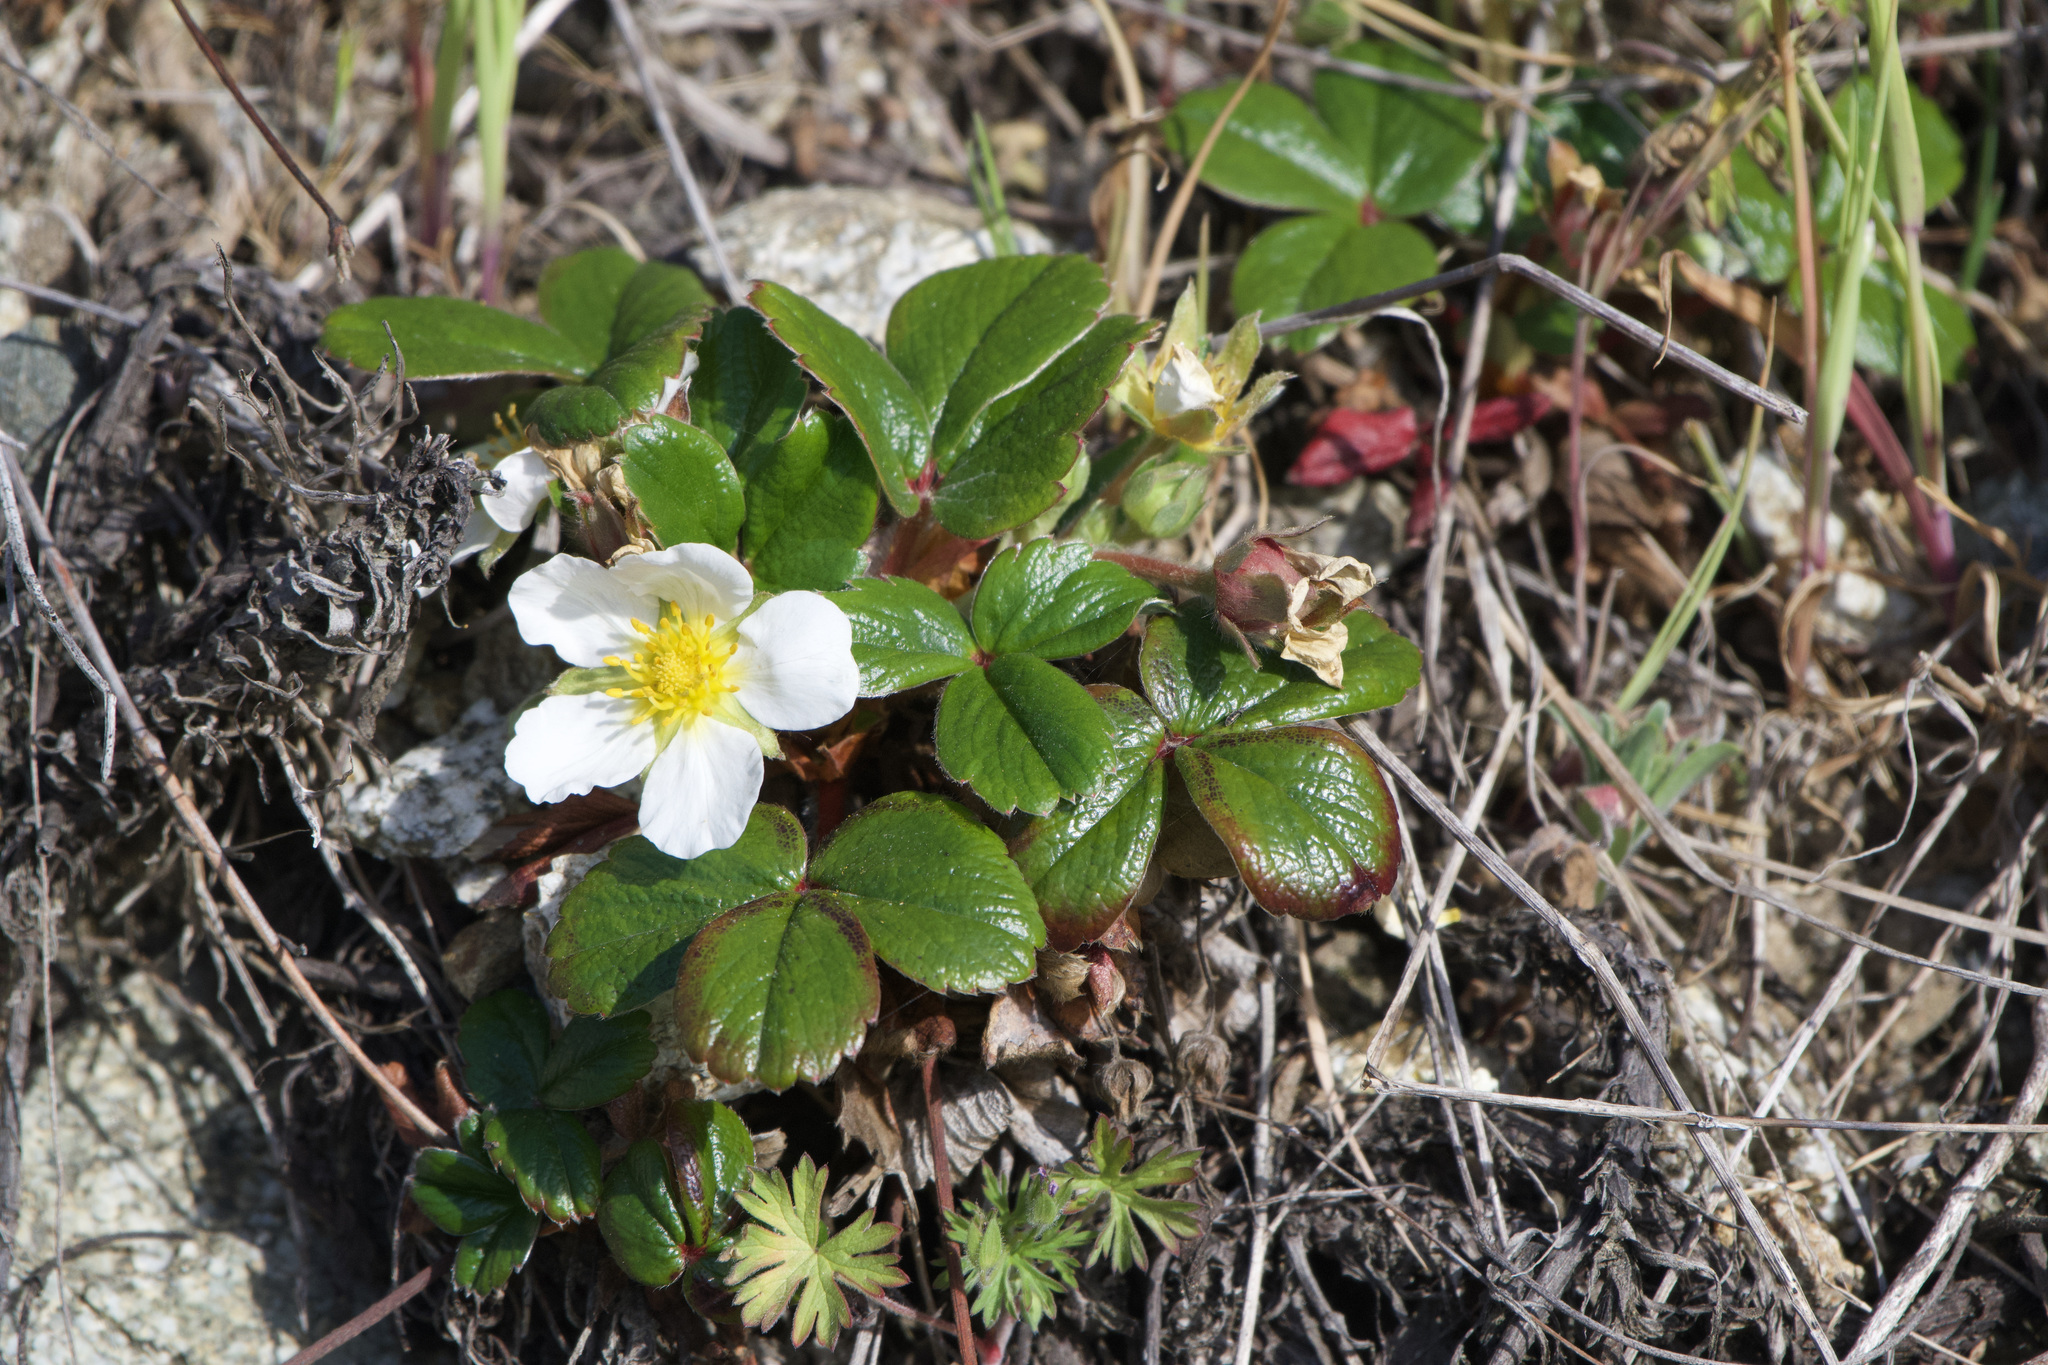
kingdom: Plantae
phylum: Tracheophyta
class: Magnoliopsida
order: Rosales
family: Rosaceae
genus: Fragaria
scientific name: Fragaria chiloensis
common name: Beach strawberry
